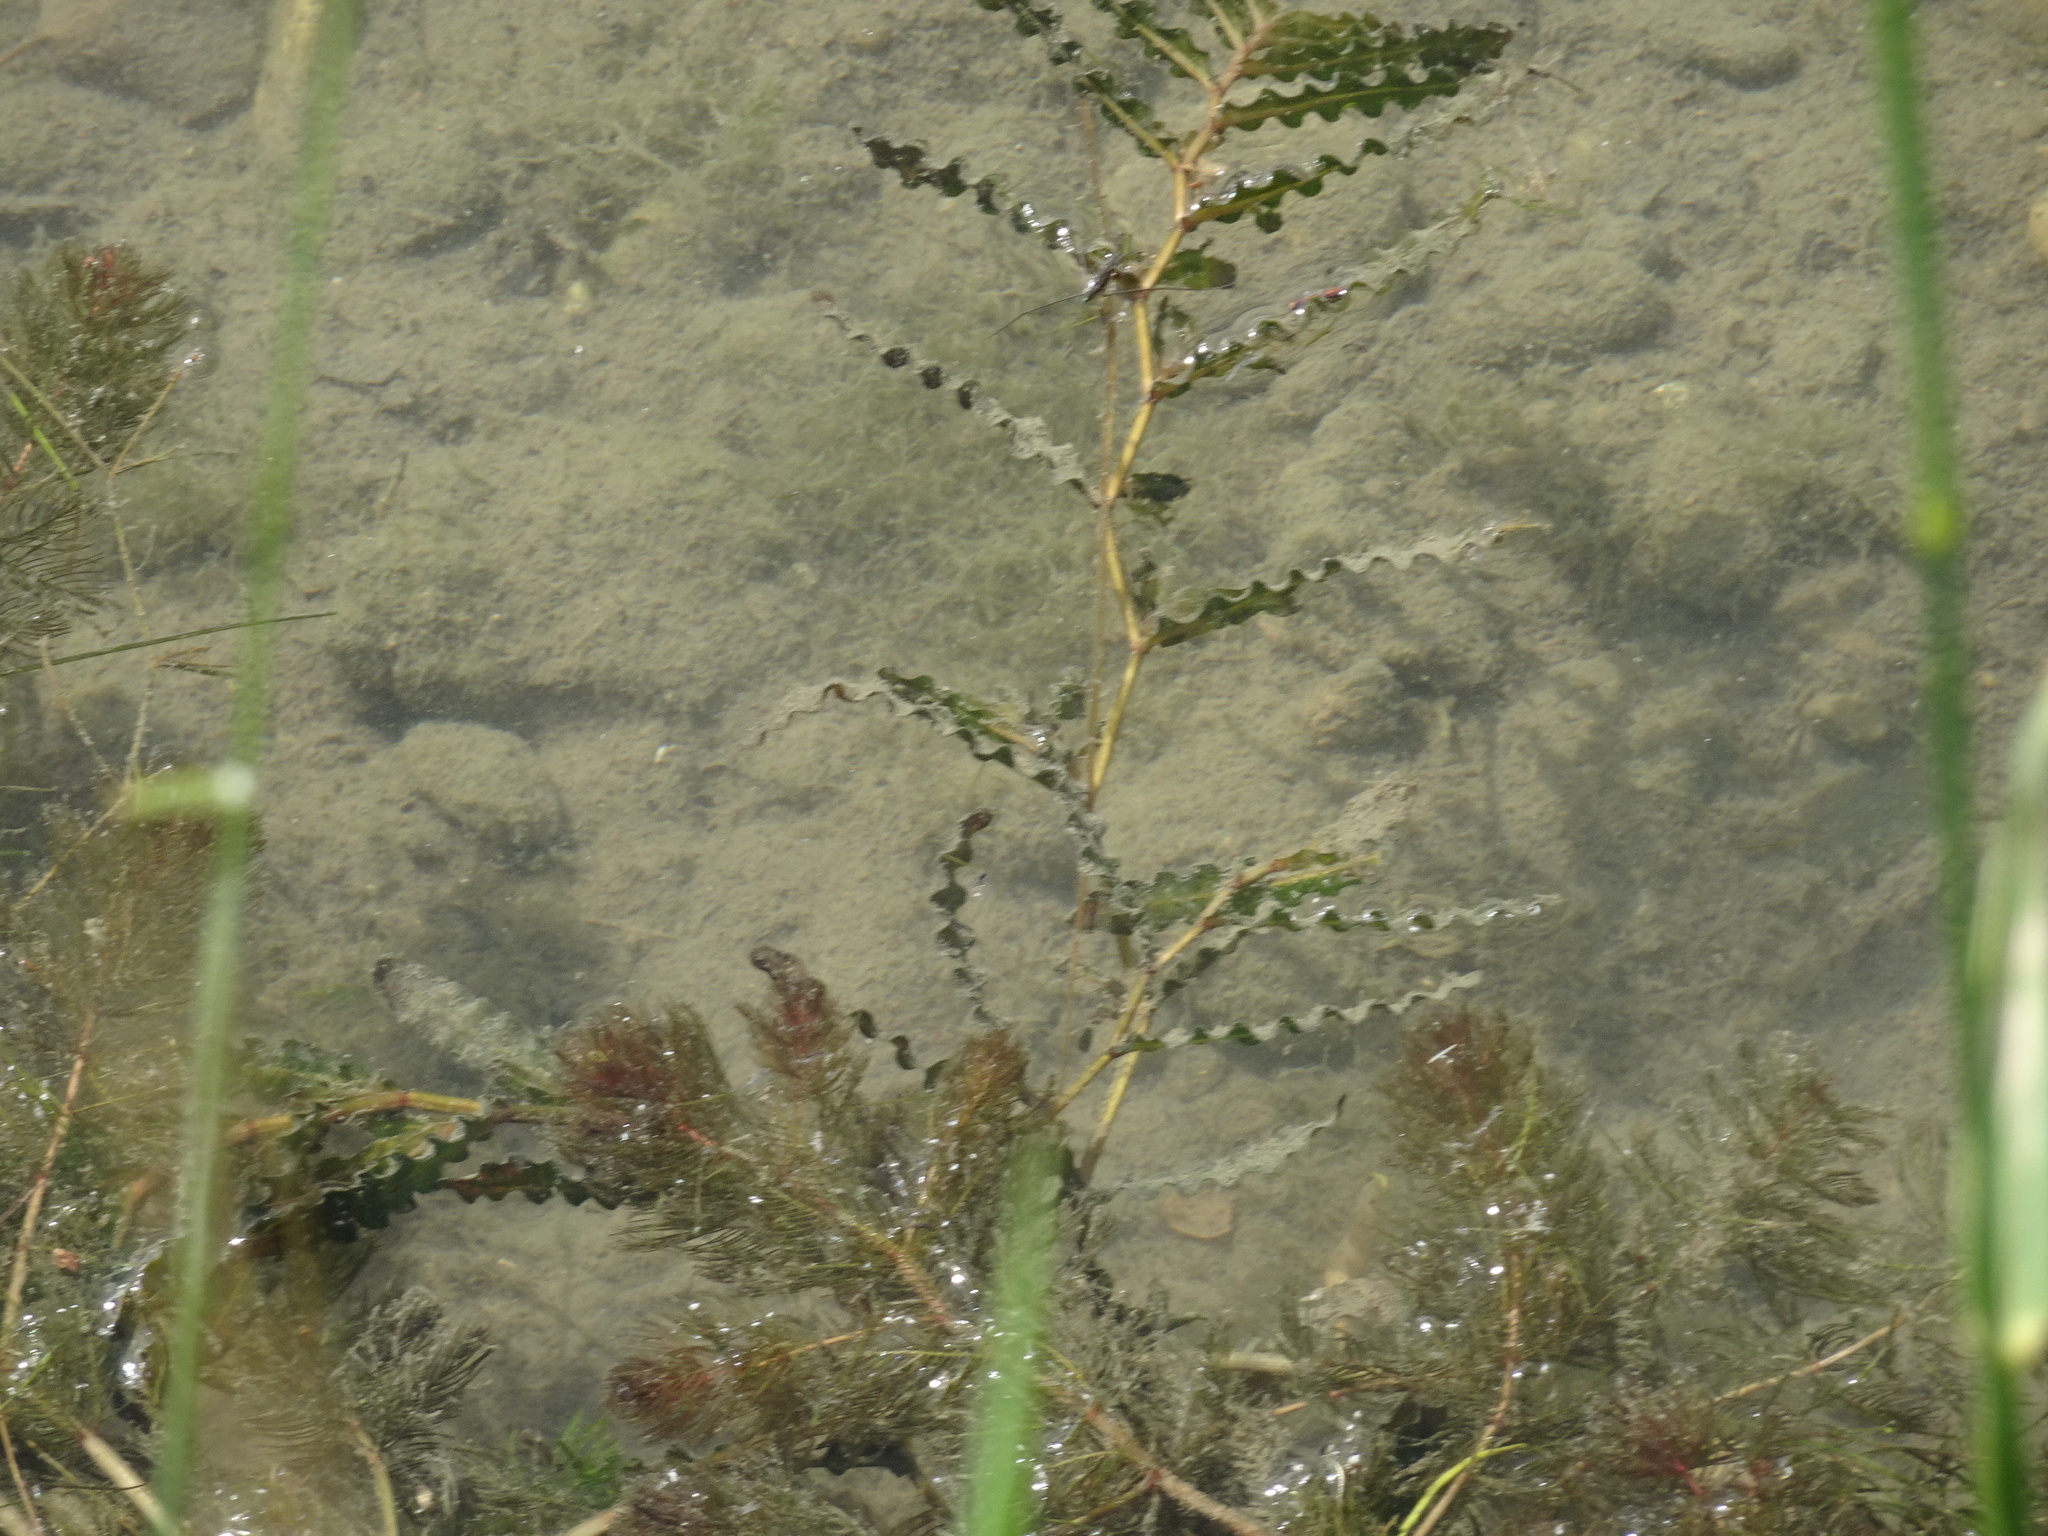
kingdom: Plantae
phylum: Tracheophyta
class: Liliopsida
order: Alismatales
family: Potamogetonaceae
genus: Potamogeton
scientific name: Potamogeton crispus
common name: Curled pondweed
